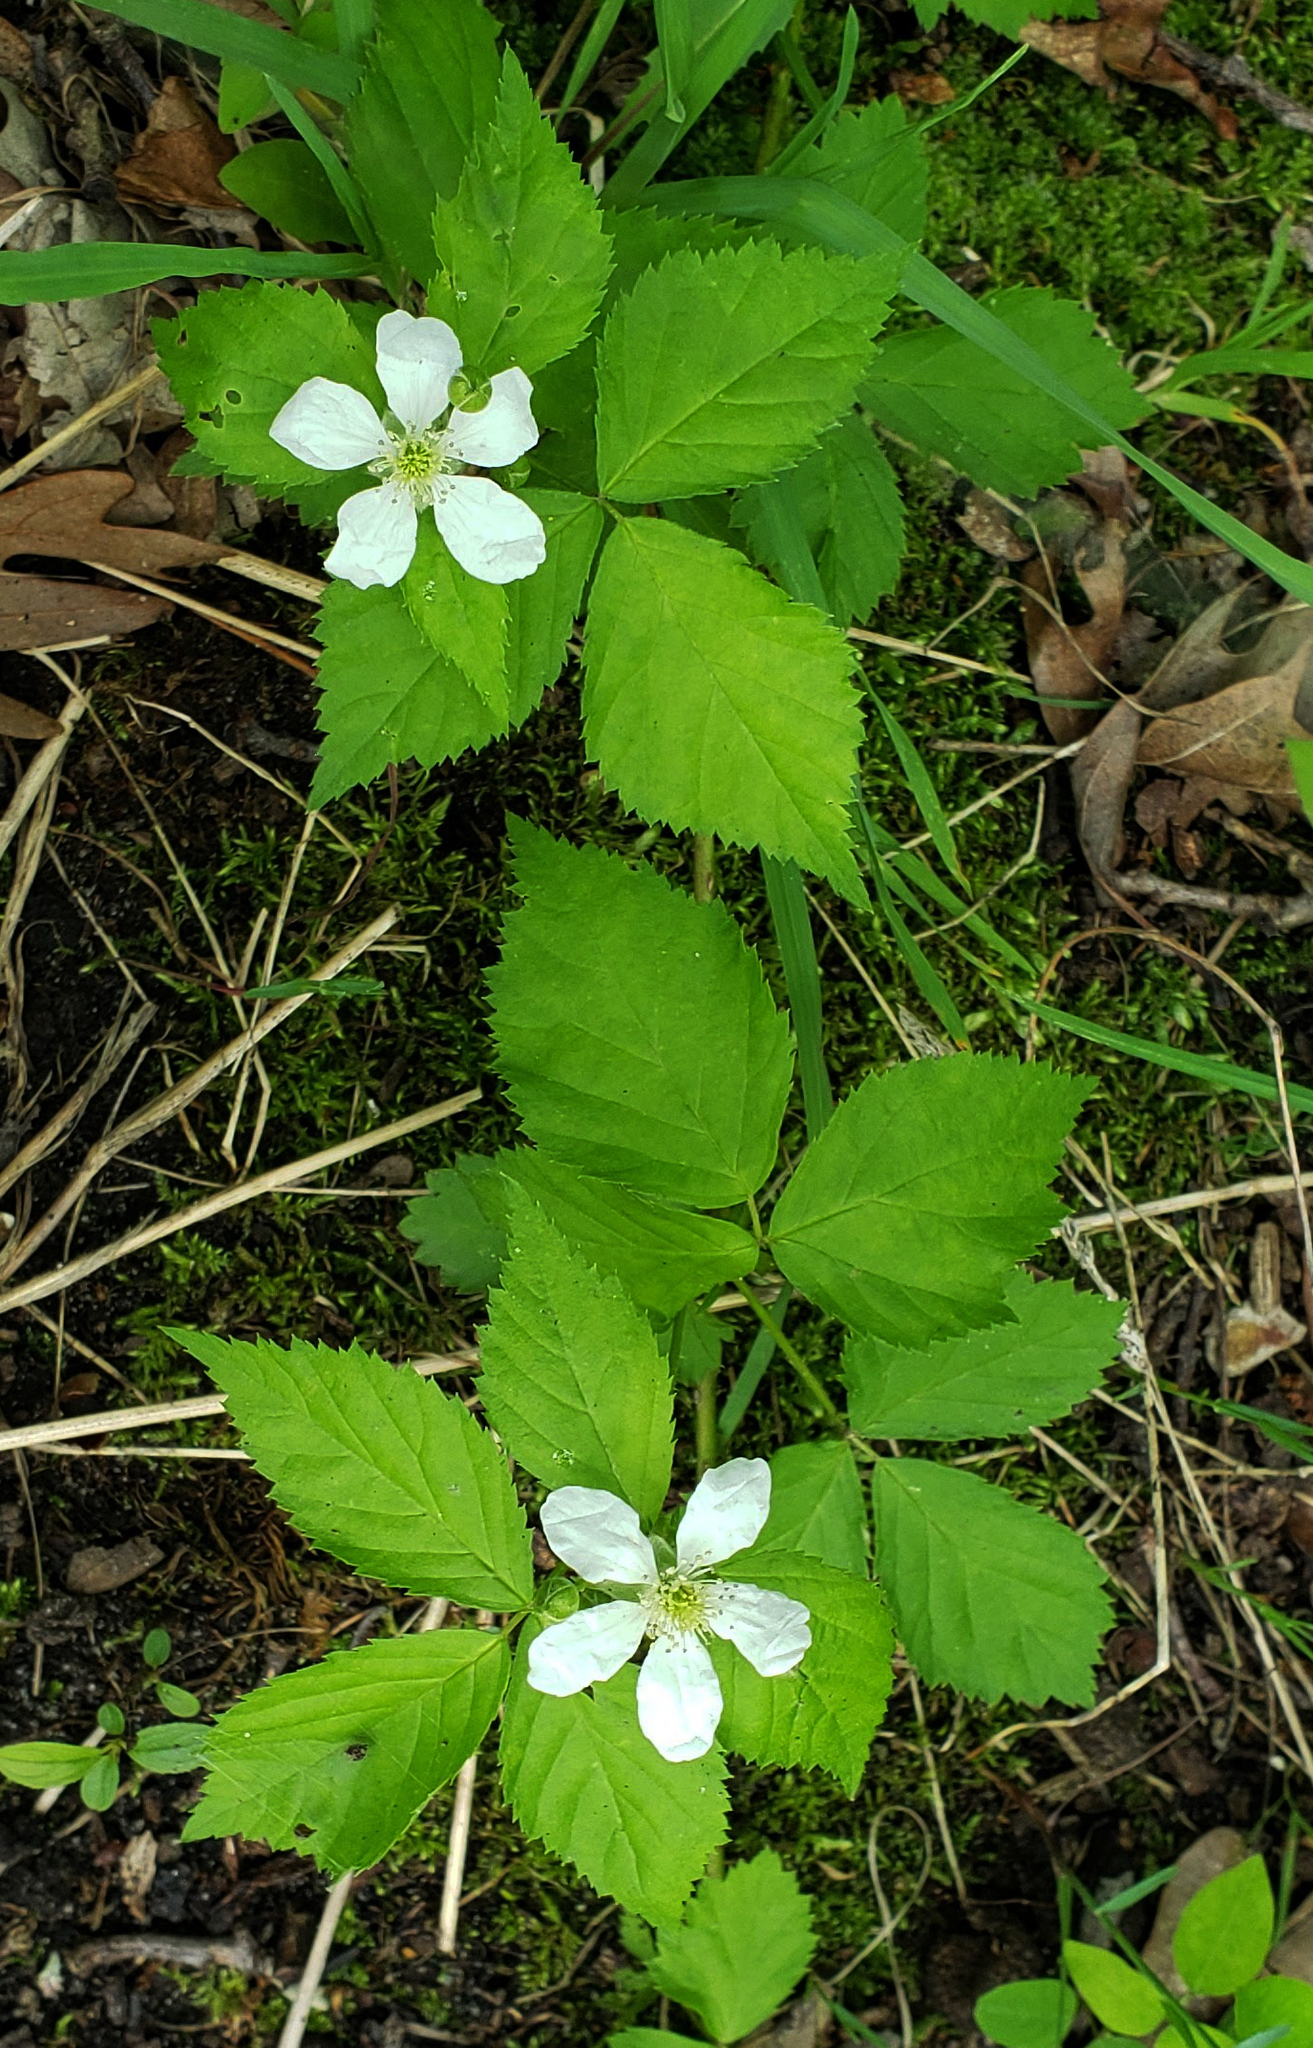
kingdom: Plantae
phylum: Tracheophyta
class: Magnoliopsida
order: Rosales
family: Rosaceae
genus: Rubus
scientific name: Rubus flagellaris
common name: American dewberry
